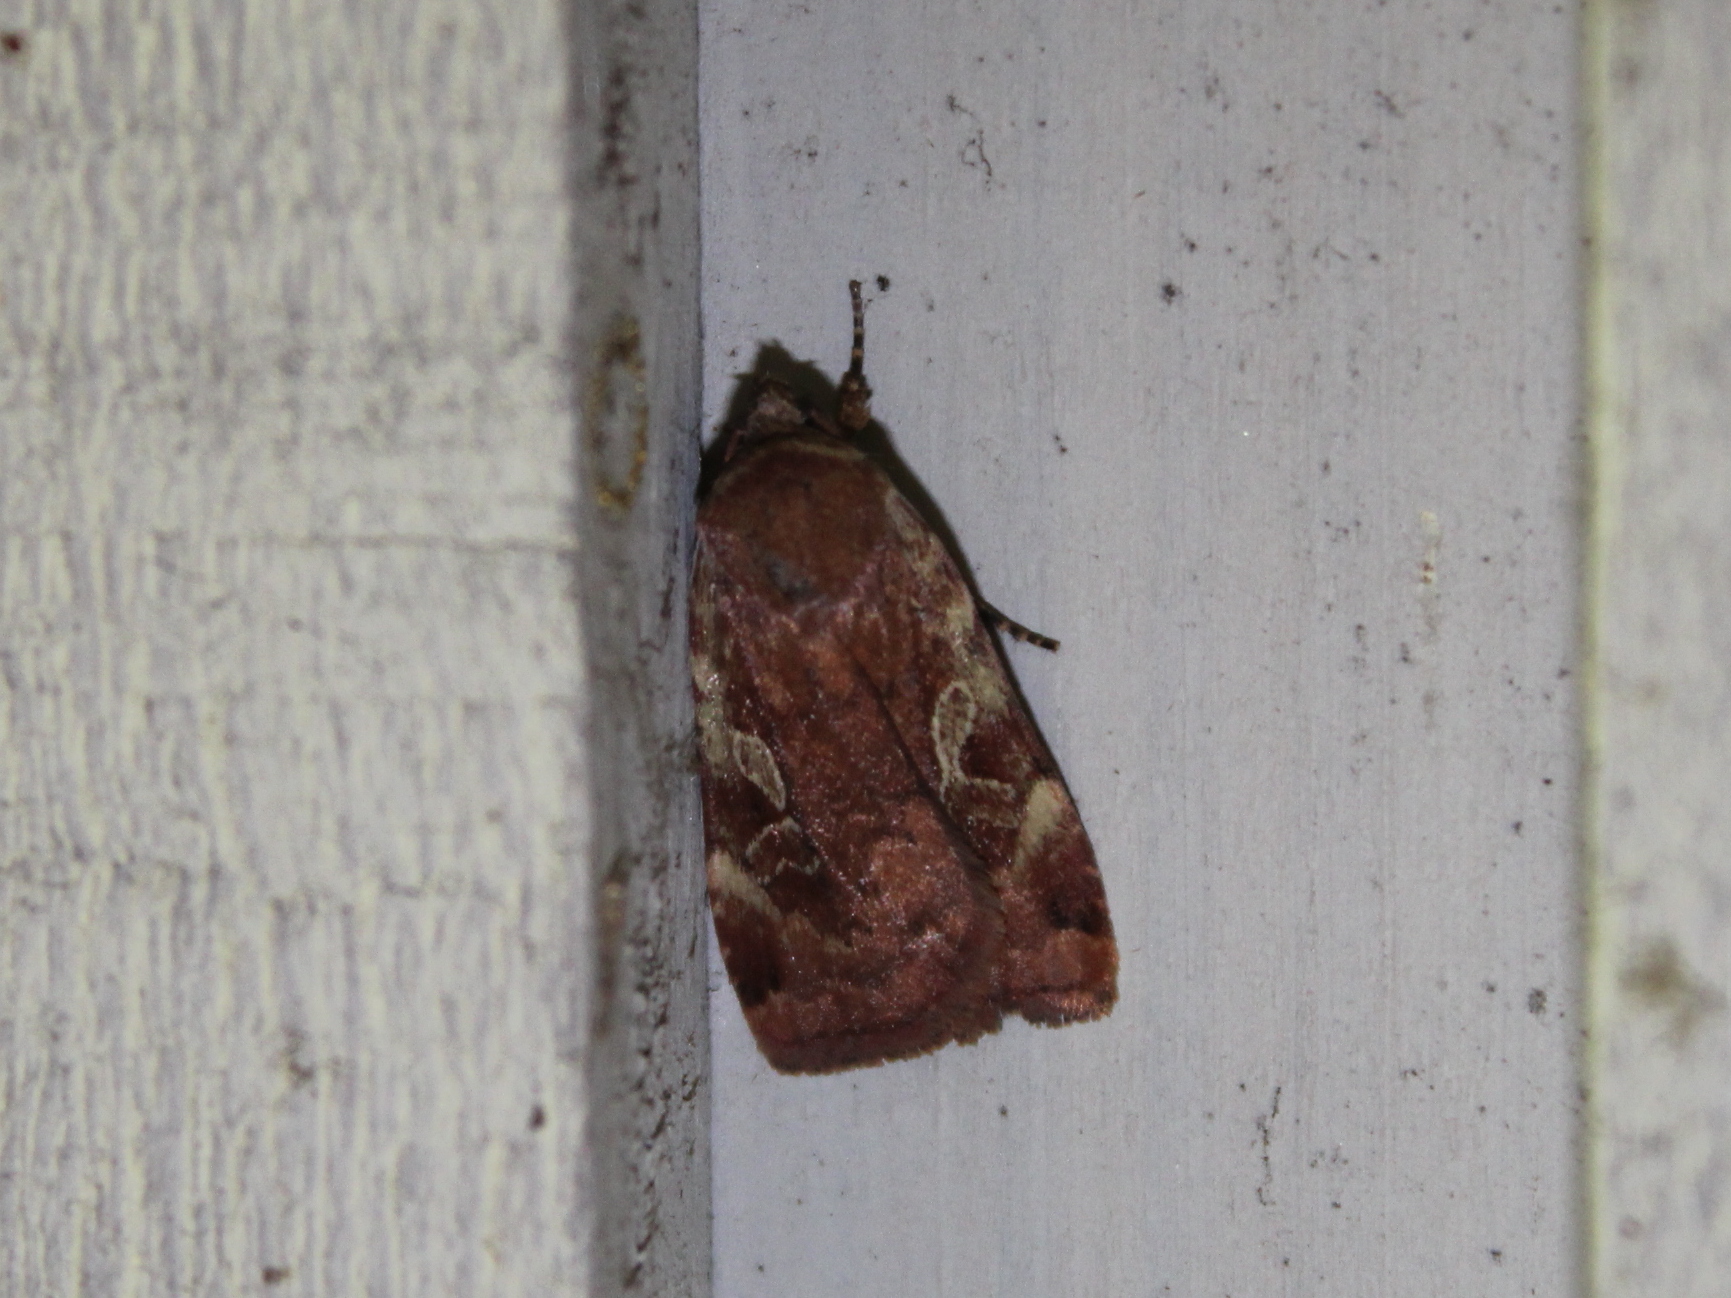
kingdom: Animalia
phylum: Arthropoda
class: Insecta
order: Lepidoptera
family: Noctuidae
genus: Cryptocala
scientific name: Cryptocala acadiensis
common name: Catocaline dart
